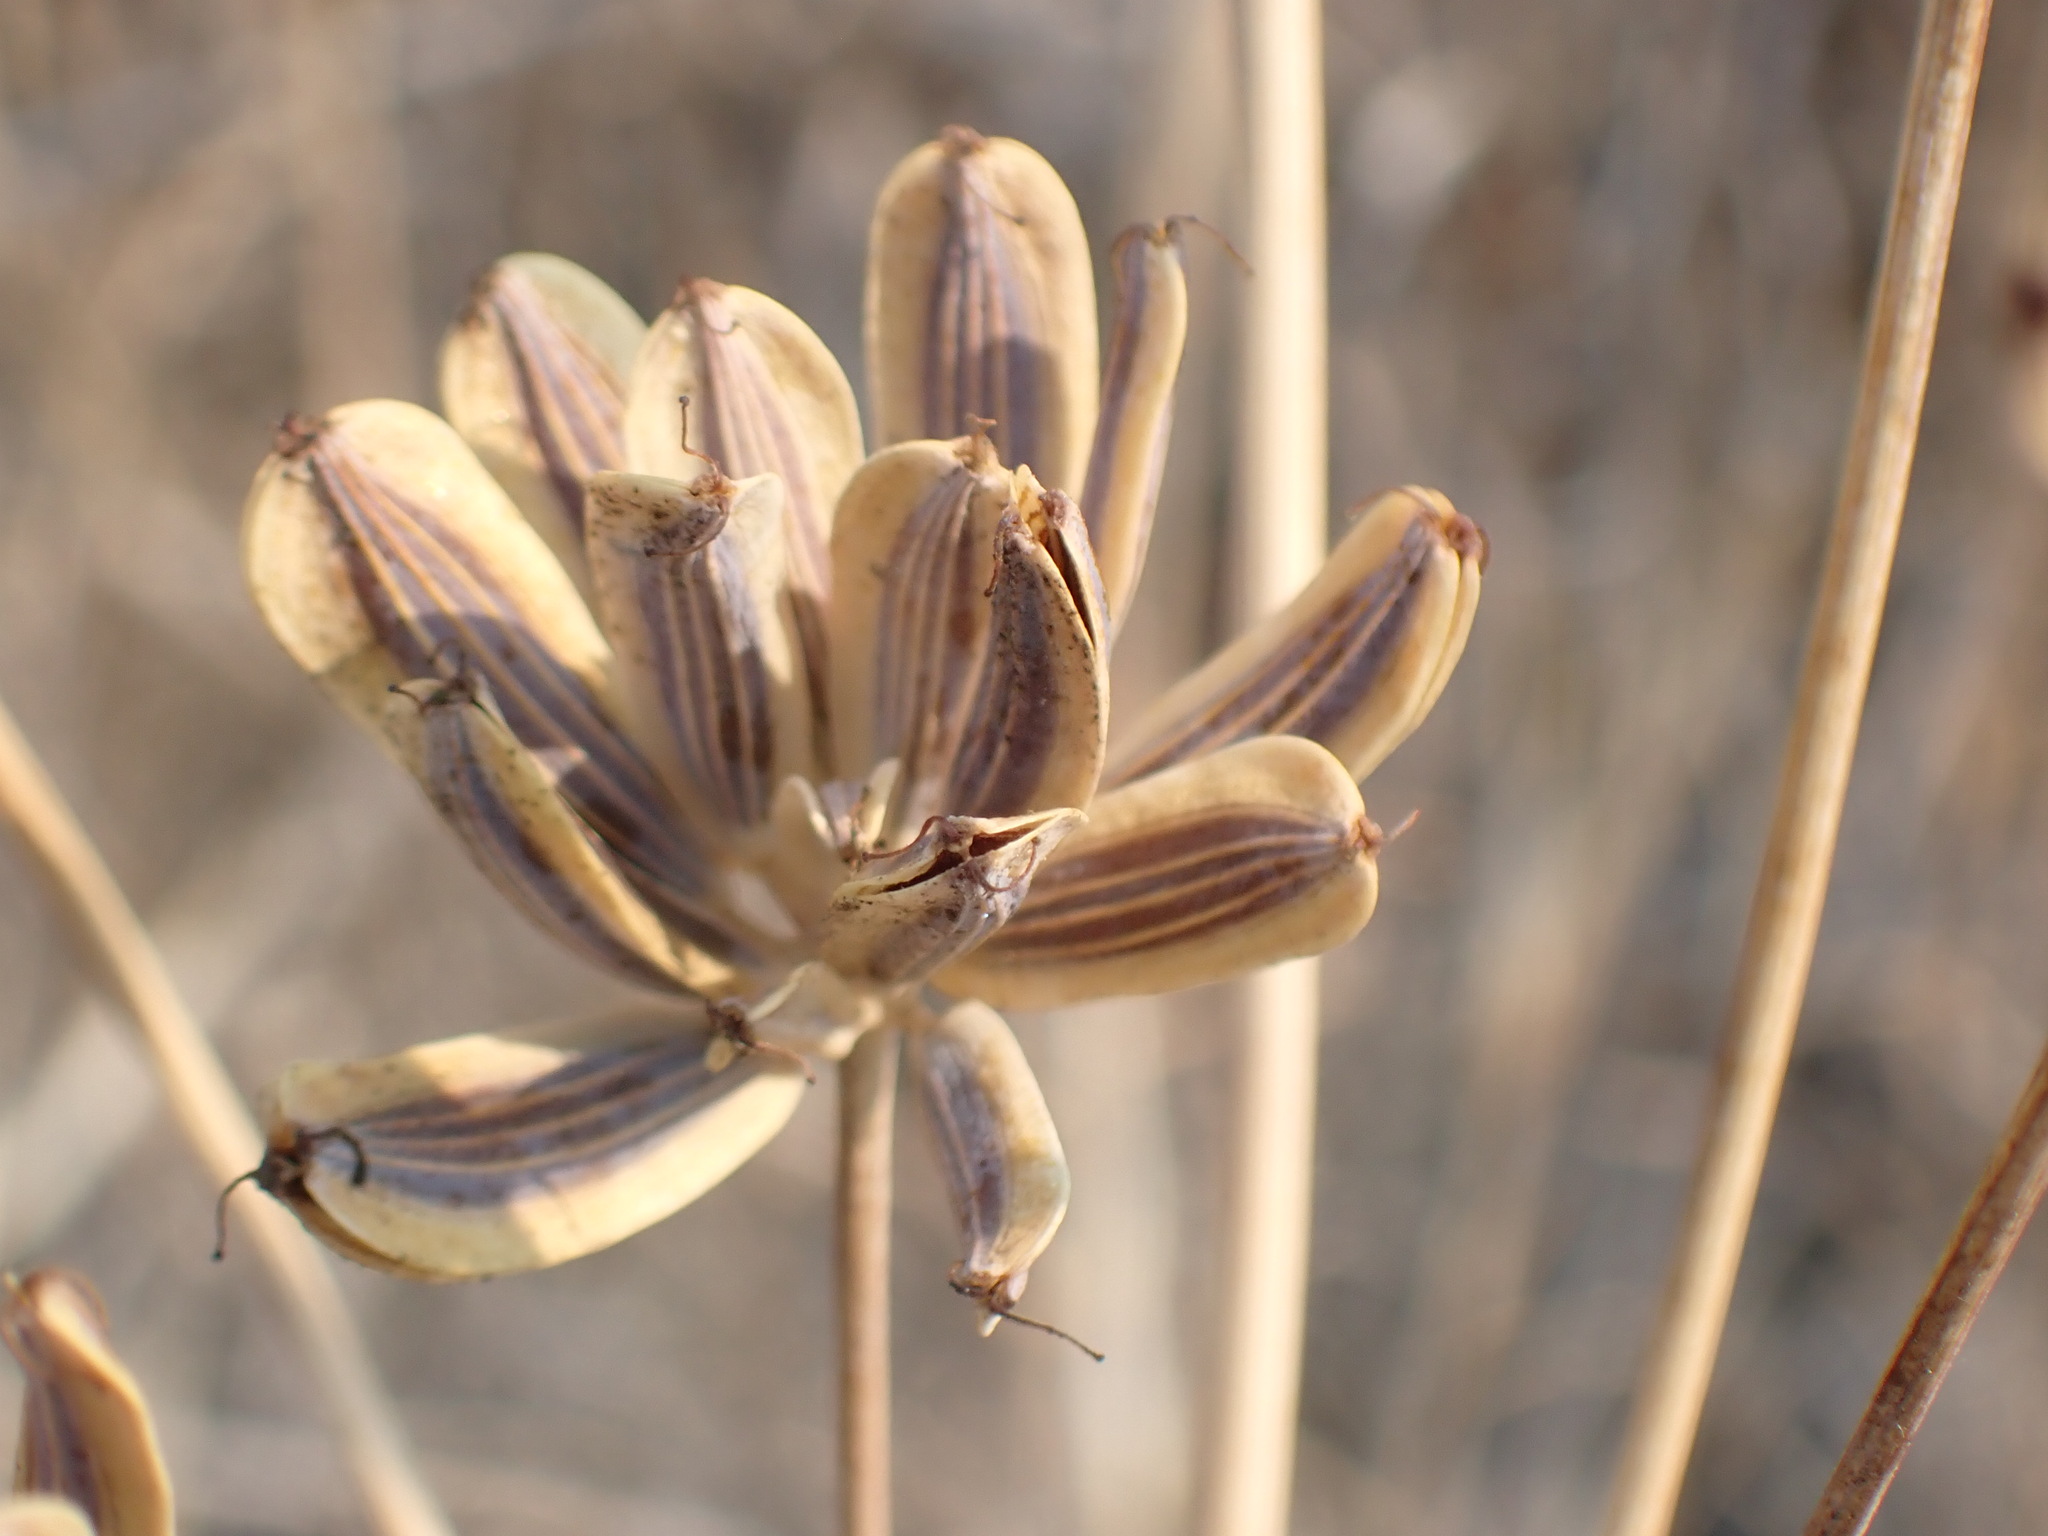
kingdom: Plantae
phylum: Tracheophyta
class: Magnoliopsida
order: Apiales
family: Apiaceae
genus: Lomatium
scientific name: Lomatium nudicaule
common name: Pestle lomatium
